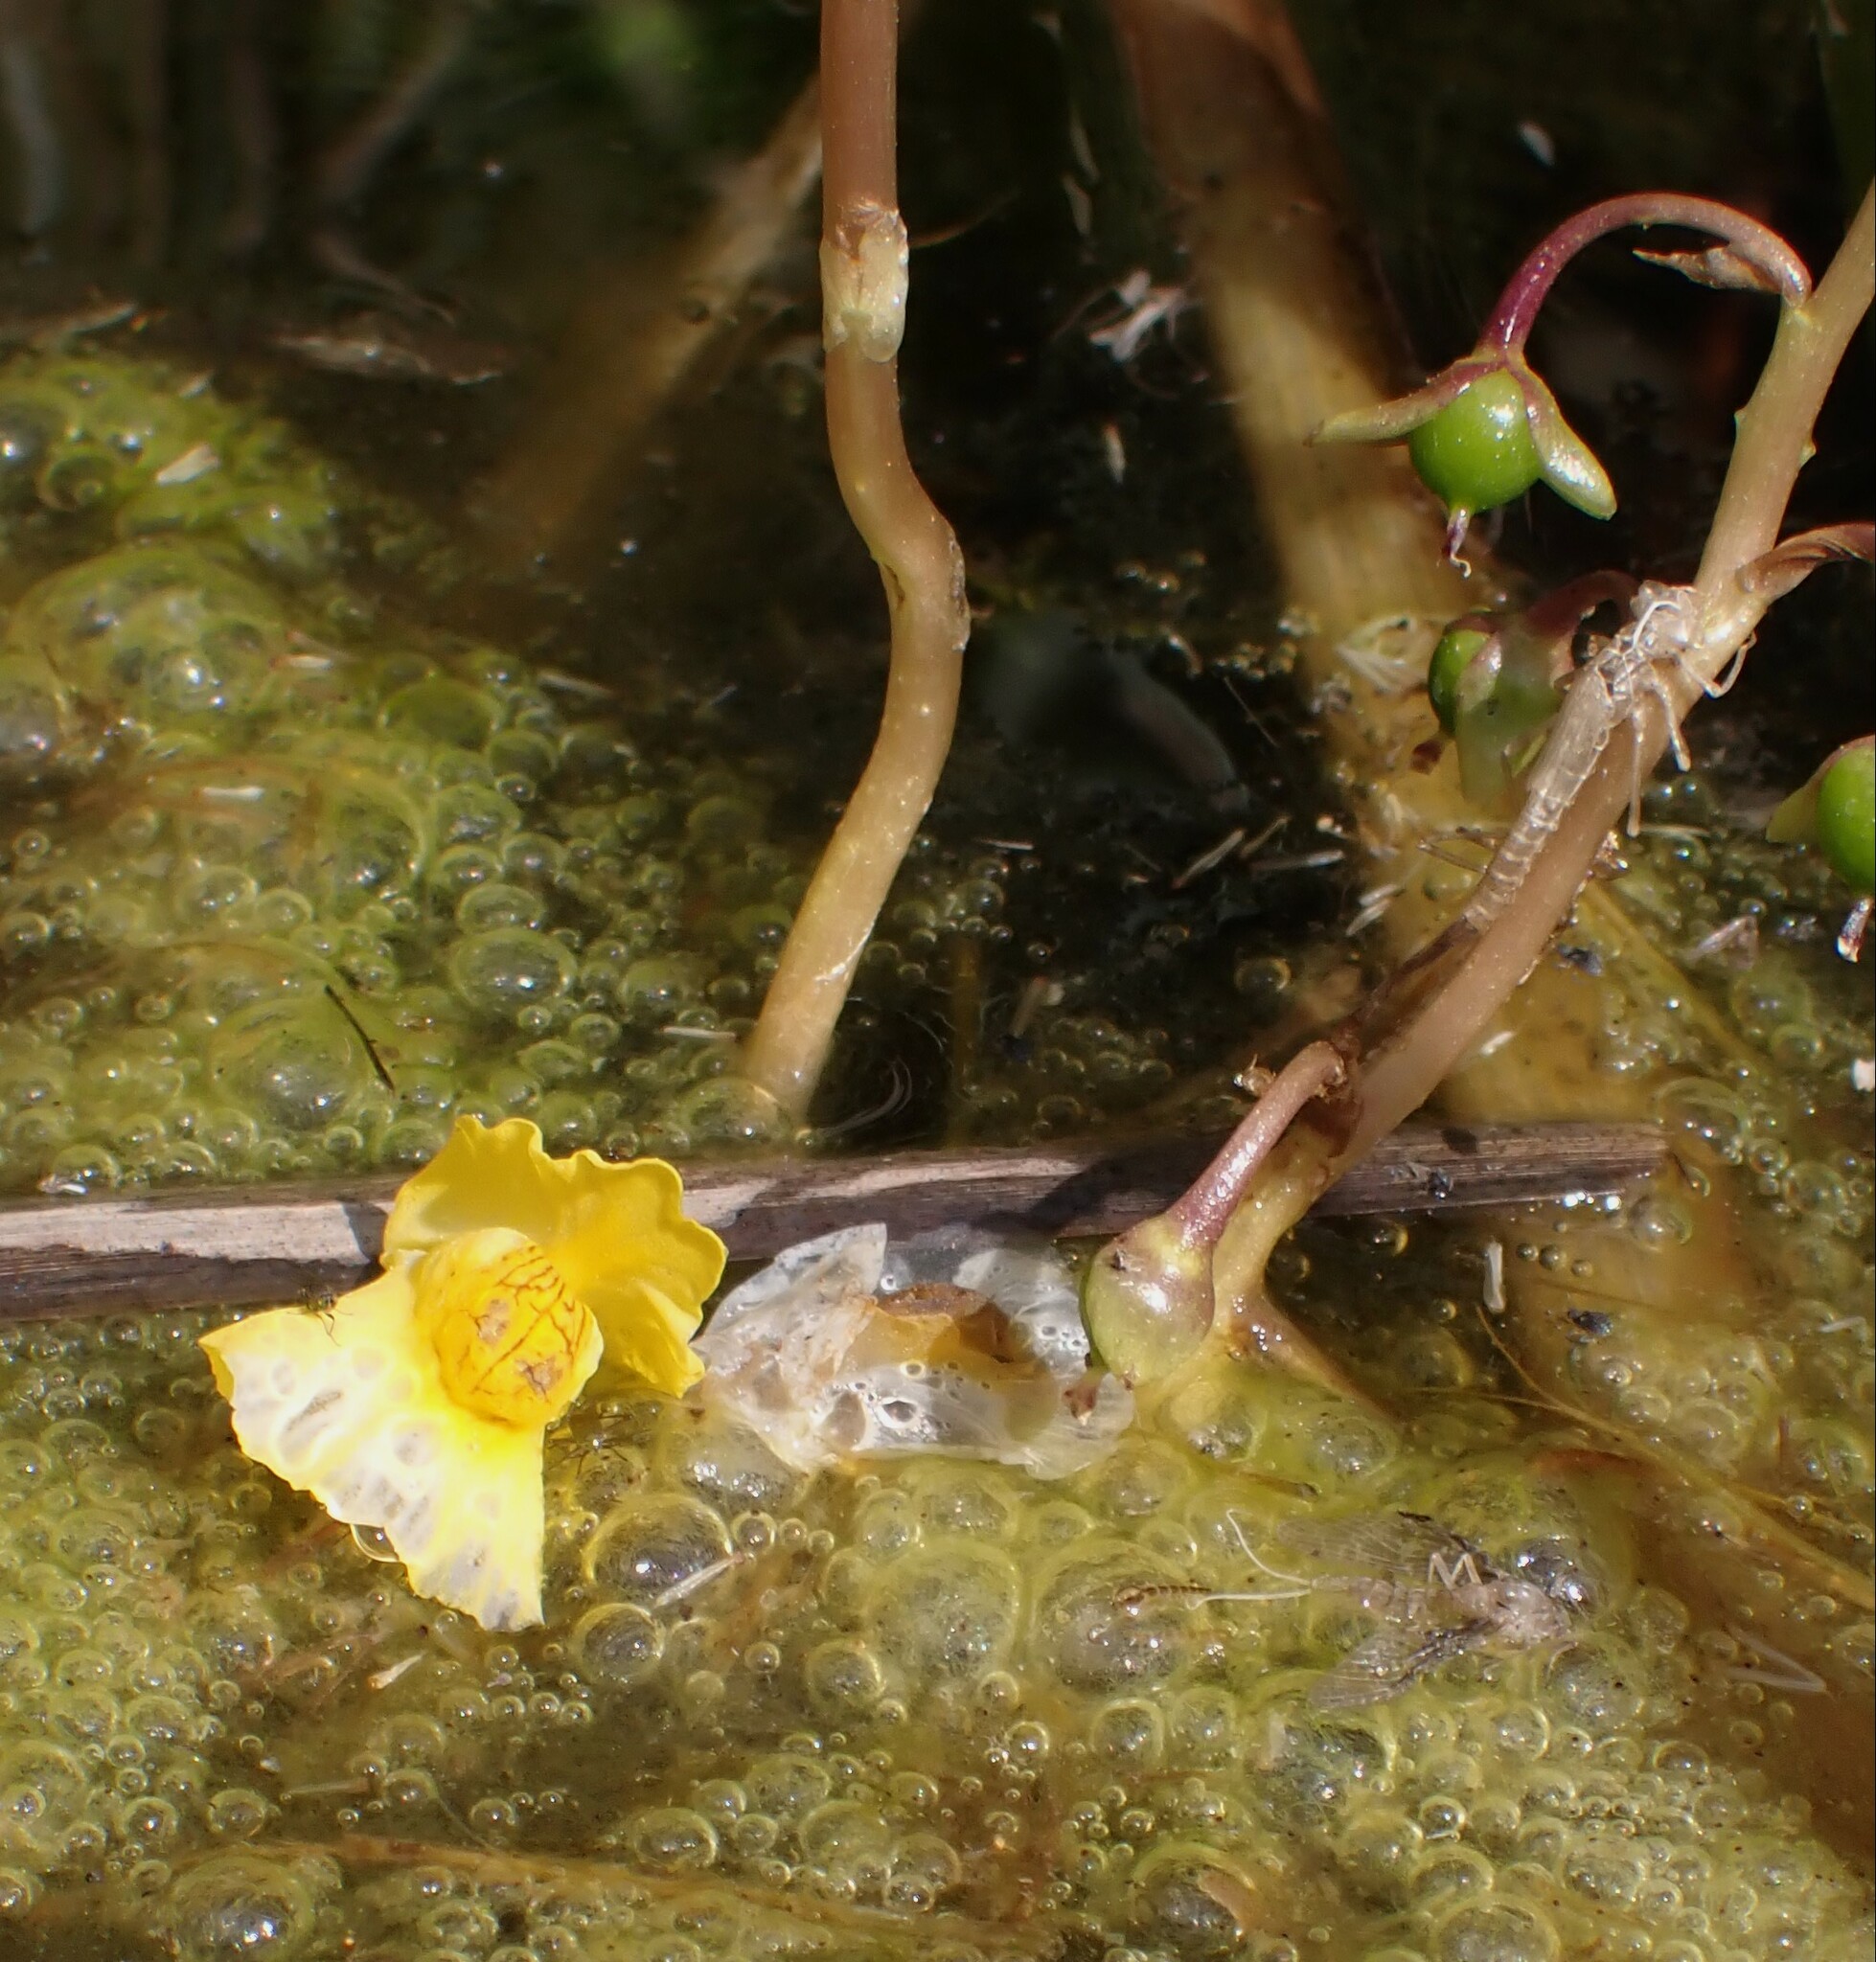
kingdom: Plantae
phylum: Tracheophyta
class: Magnoliopsida
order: Lamiales
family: Lentibulariaceae
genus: Utricularia
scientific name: Utricularia macrorhiza
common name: Common bladderwort
